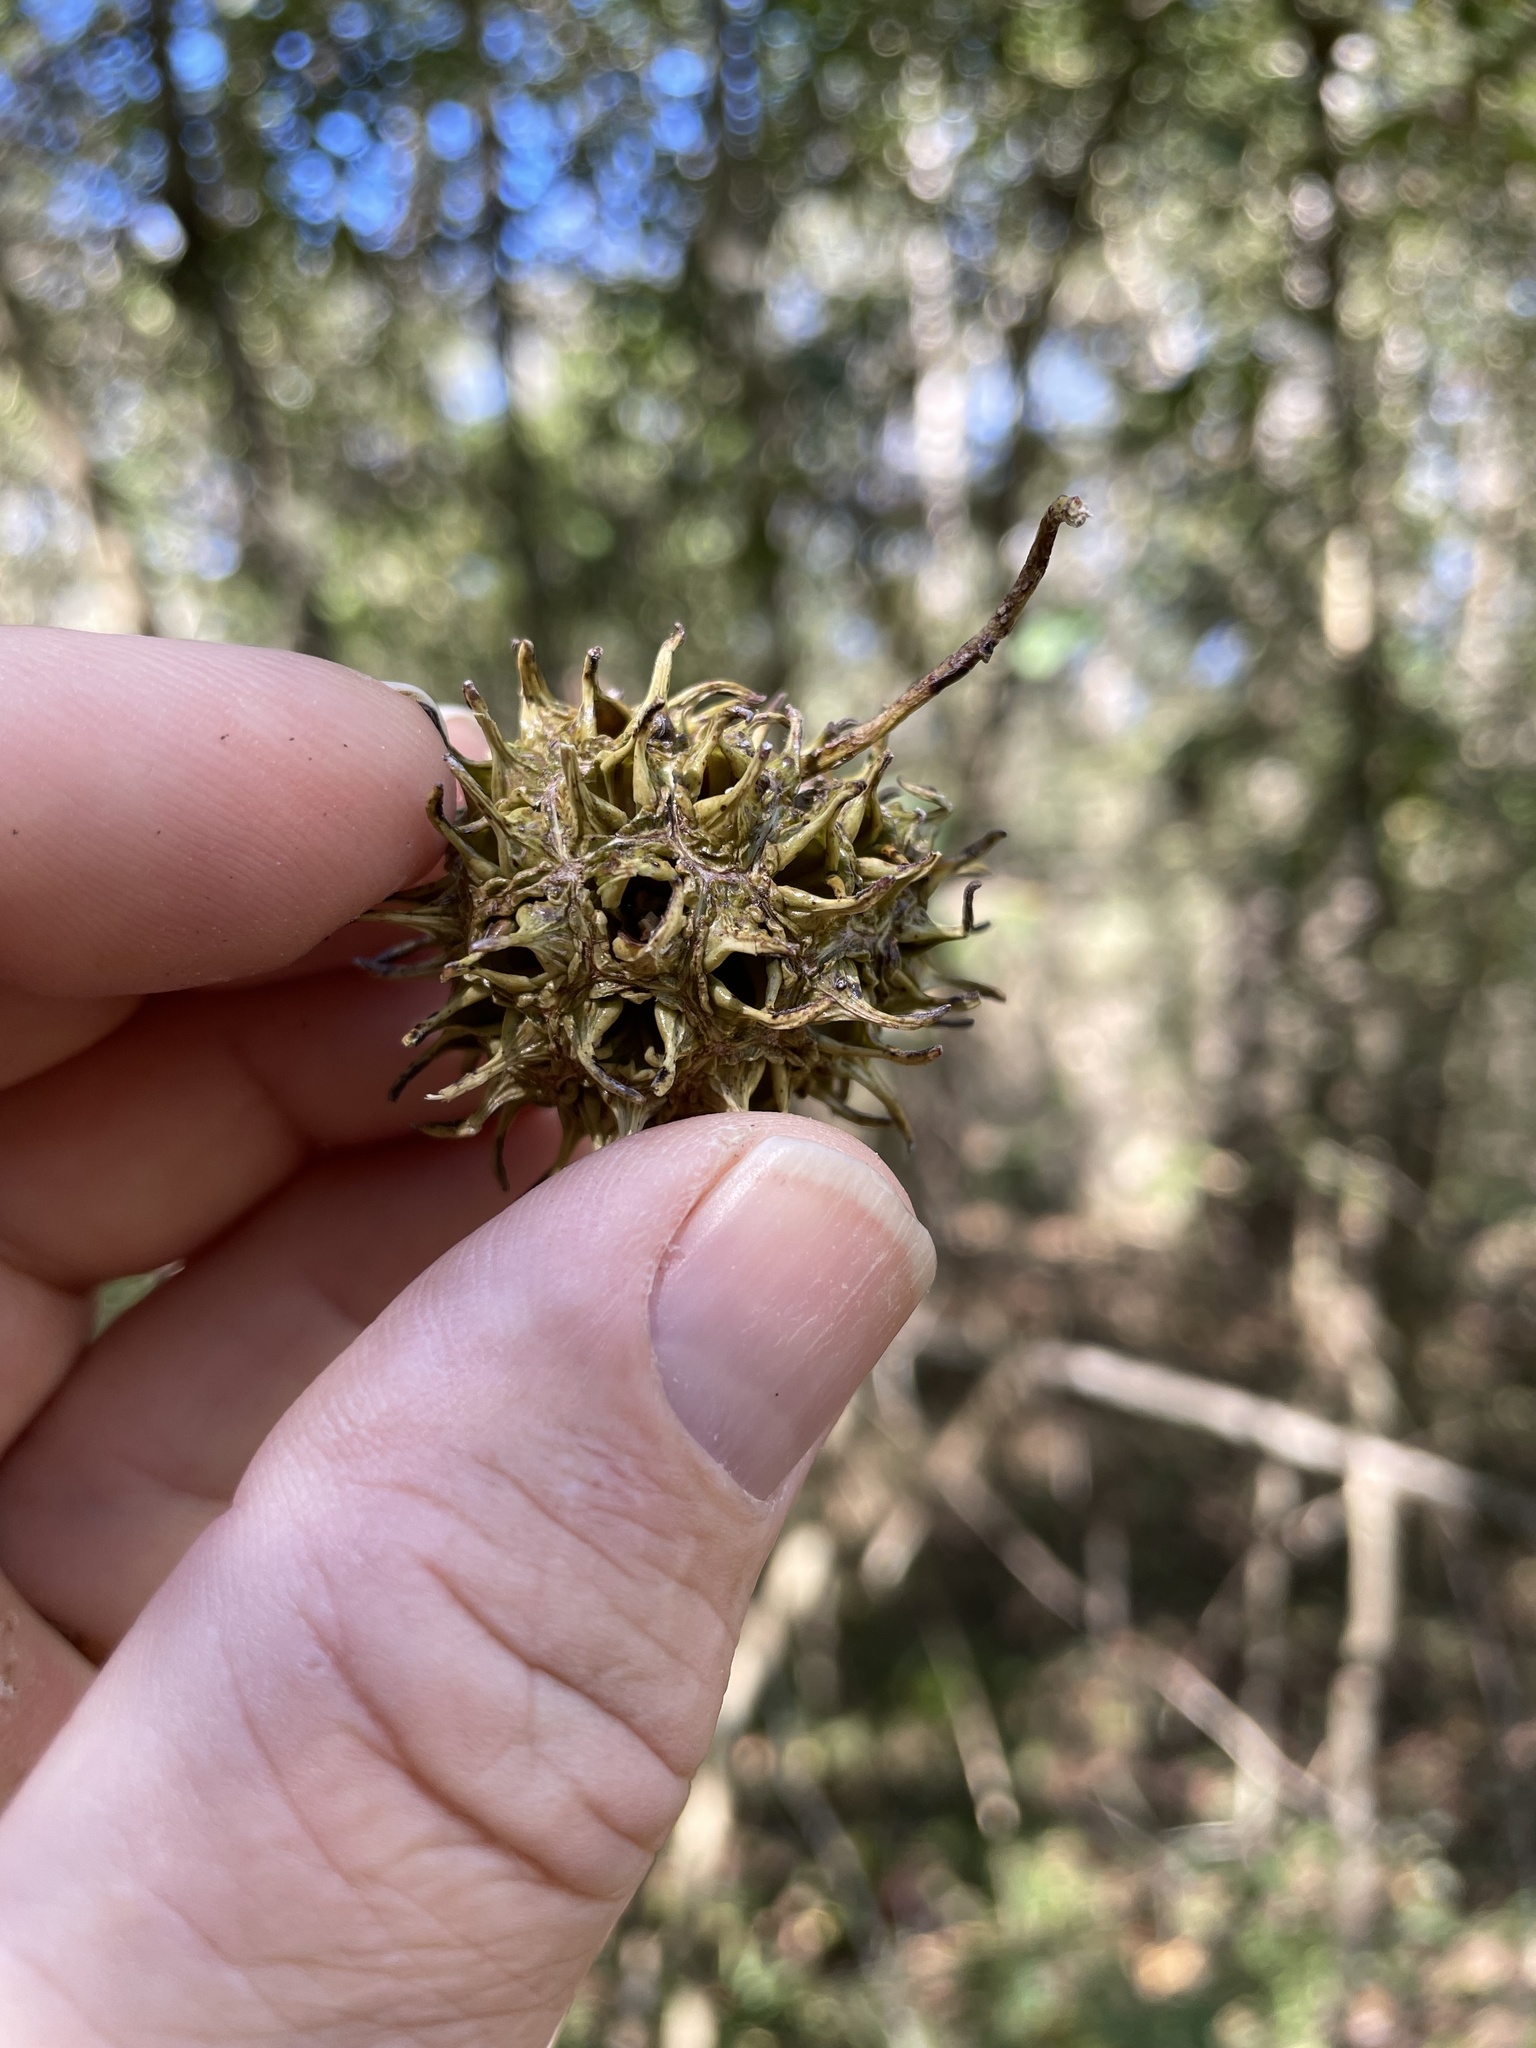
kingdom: Plantae
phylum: Tracheophyta
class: Magnoliopsida
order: Saxifragales
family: Altingiaceae
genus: Liquidambar
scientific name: Liquidambar styraciflua
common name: Sweet gum
